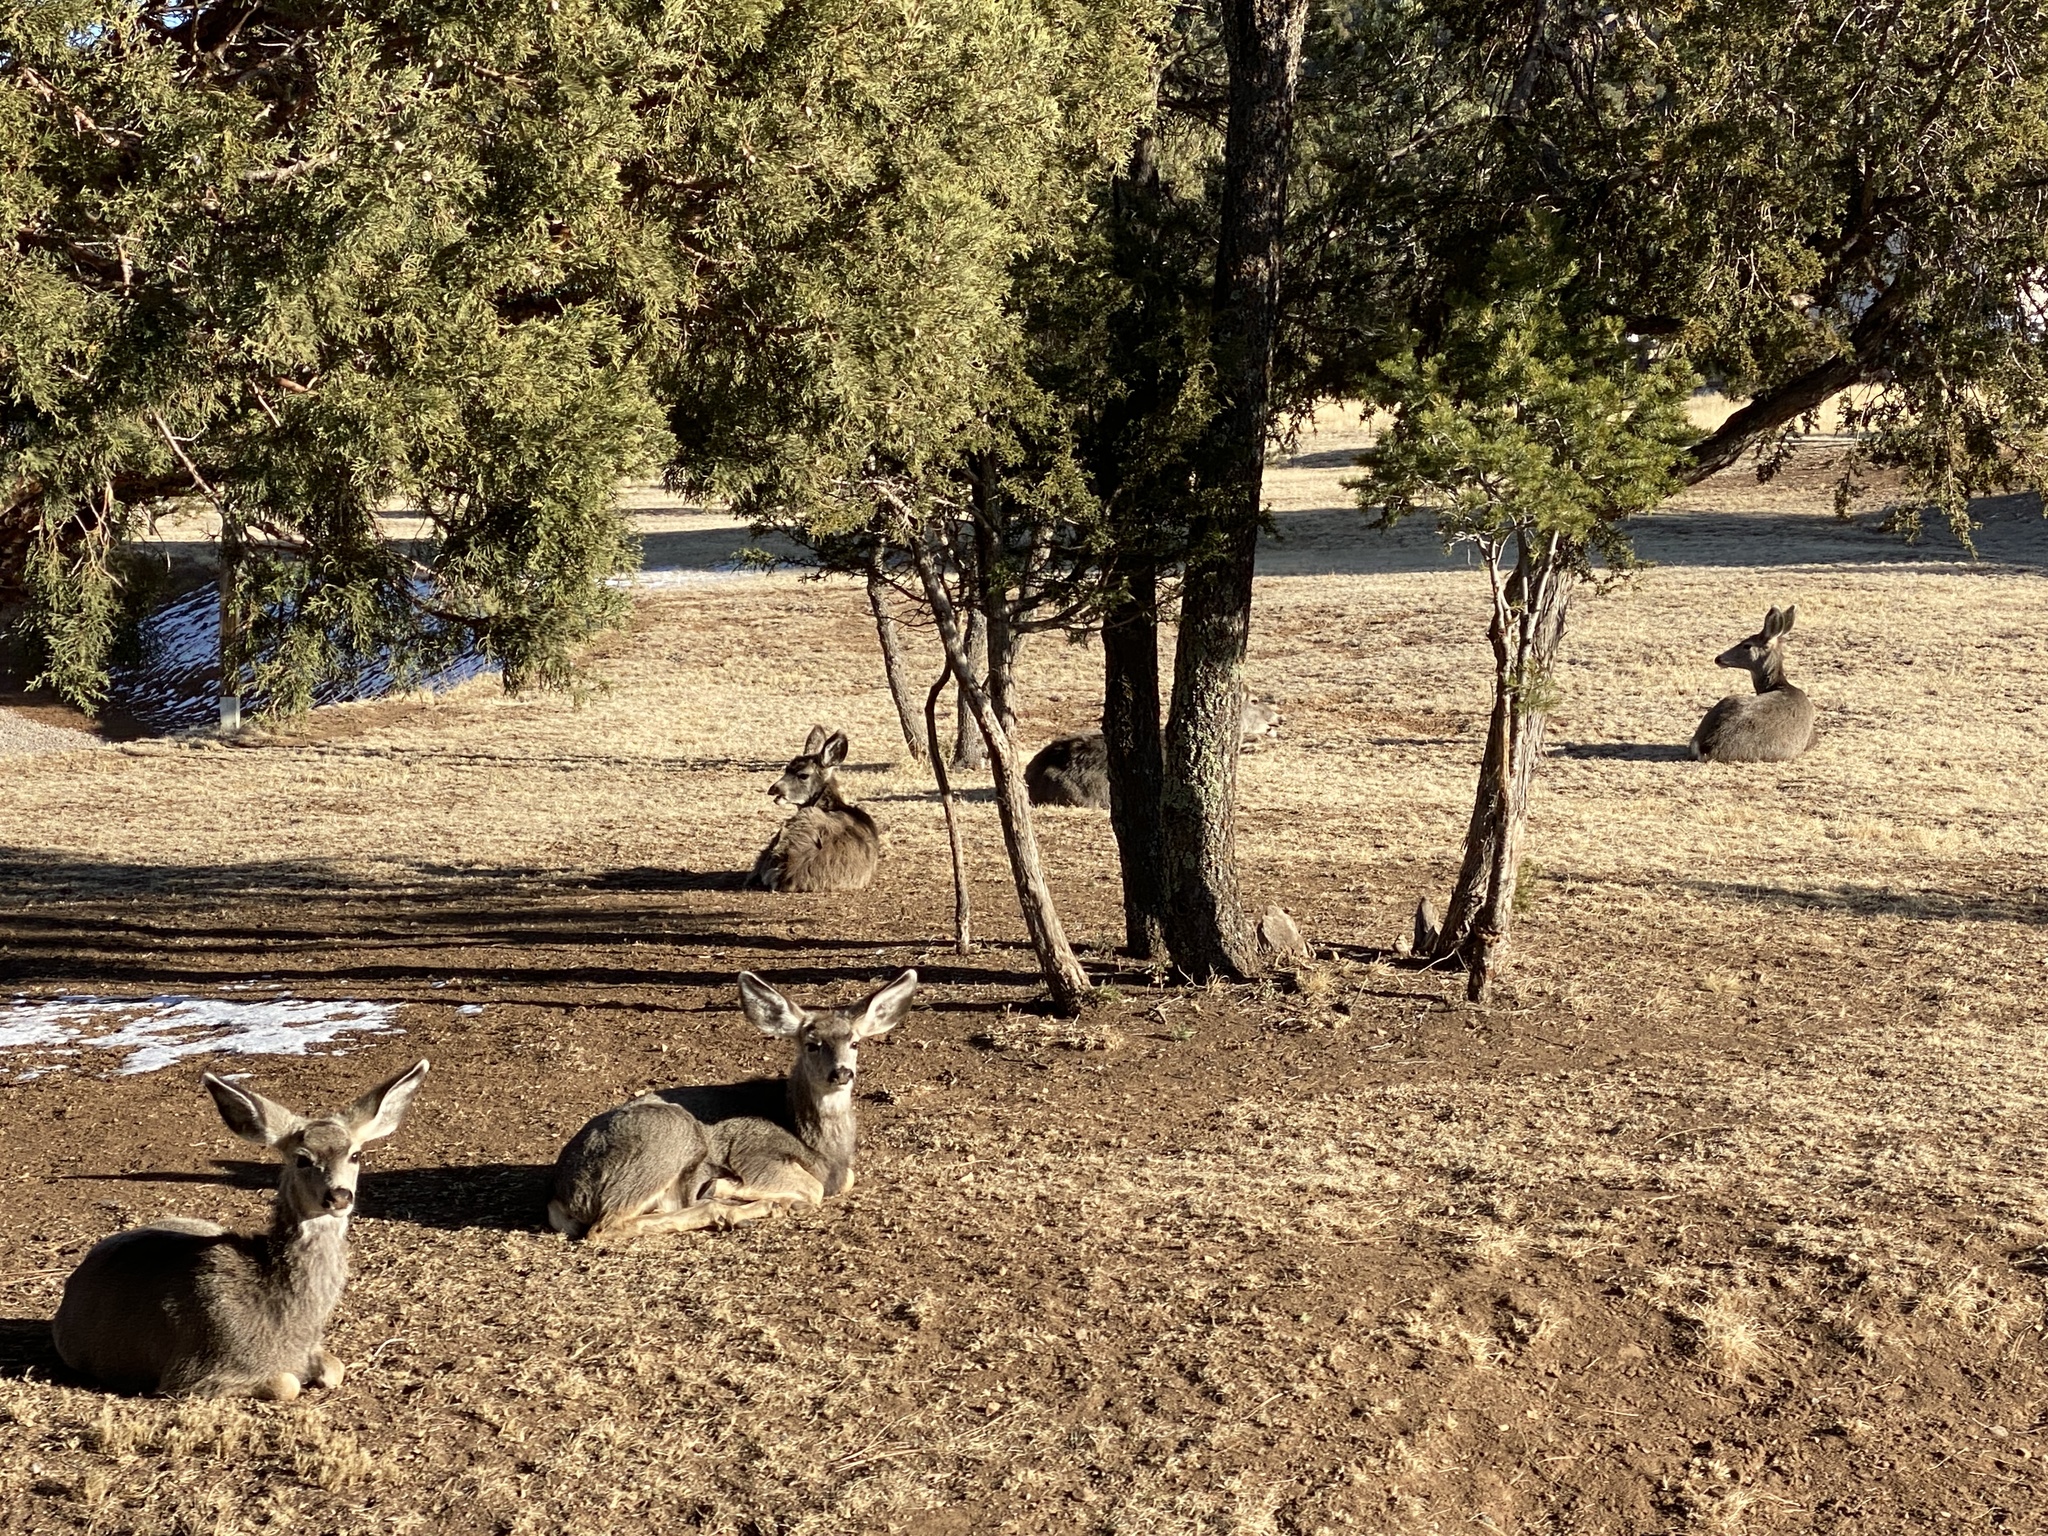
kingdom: Animalia
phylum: Chordata
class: Mammalia
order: Artiodactyla
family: Cervidae
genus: Odocoileus
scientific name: Odocoileus hemionus
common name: Mule deer
